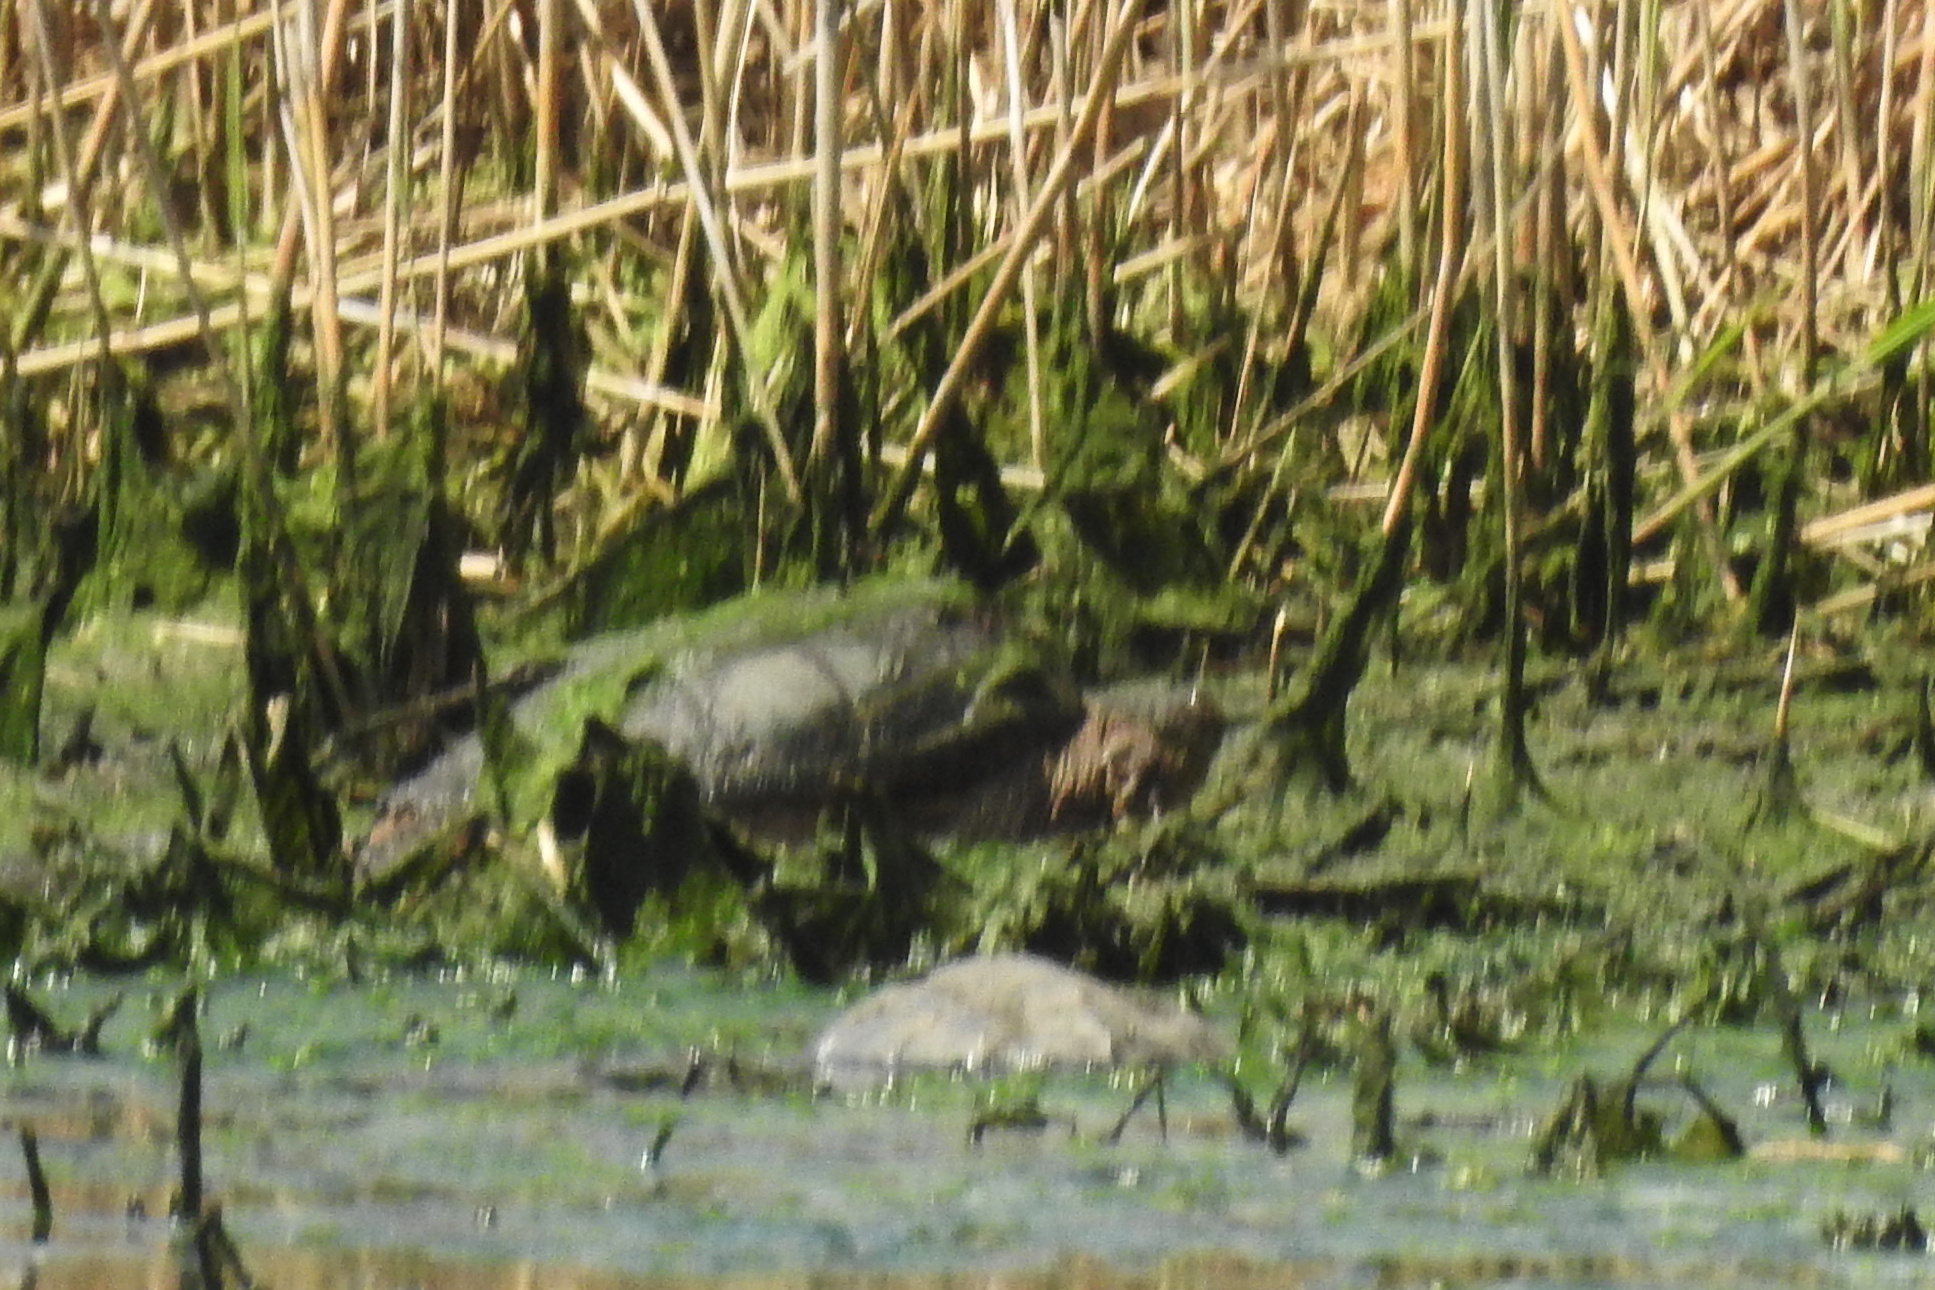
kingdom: Animalia
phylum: Chordata
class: Testudines
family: Chelydridae
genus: Chelydra
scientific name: Chelydra serpentina
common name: Common snapping turtle
